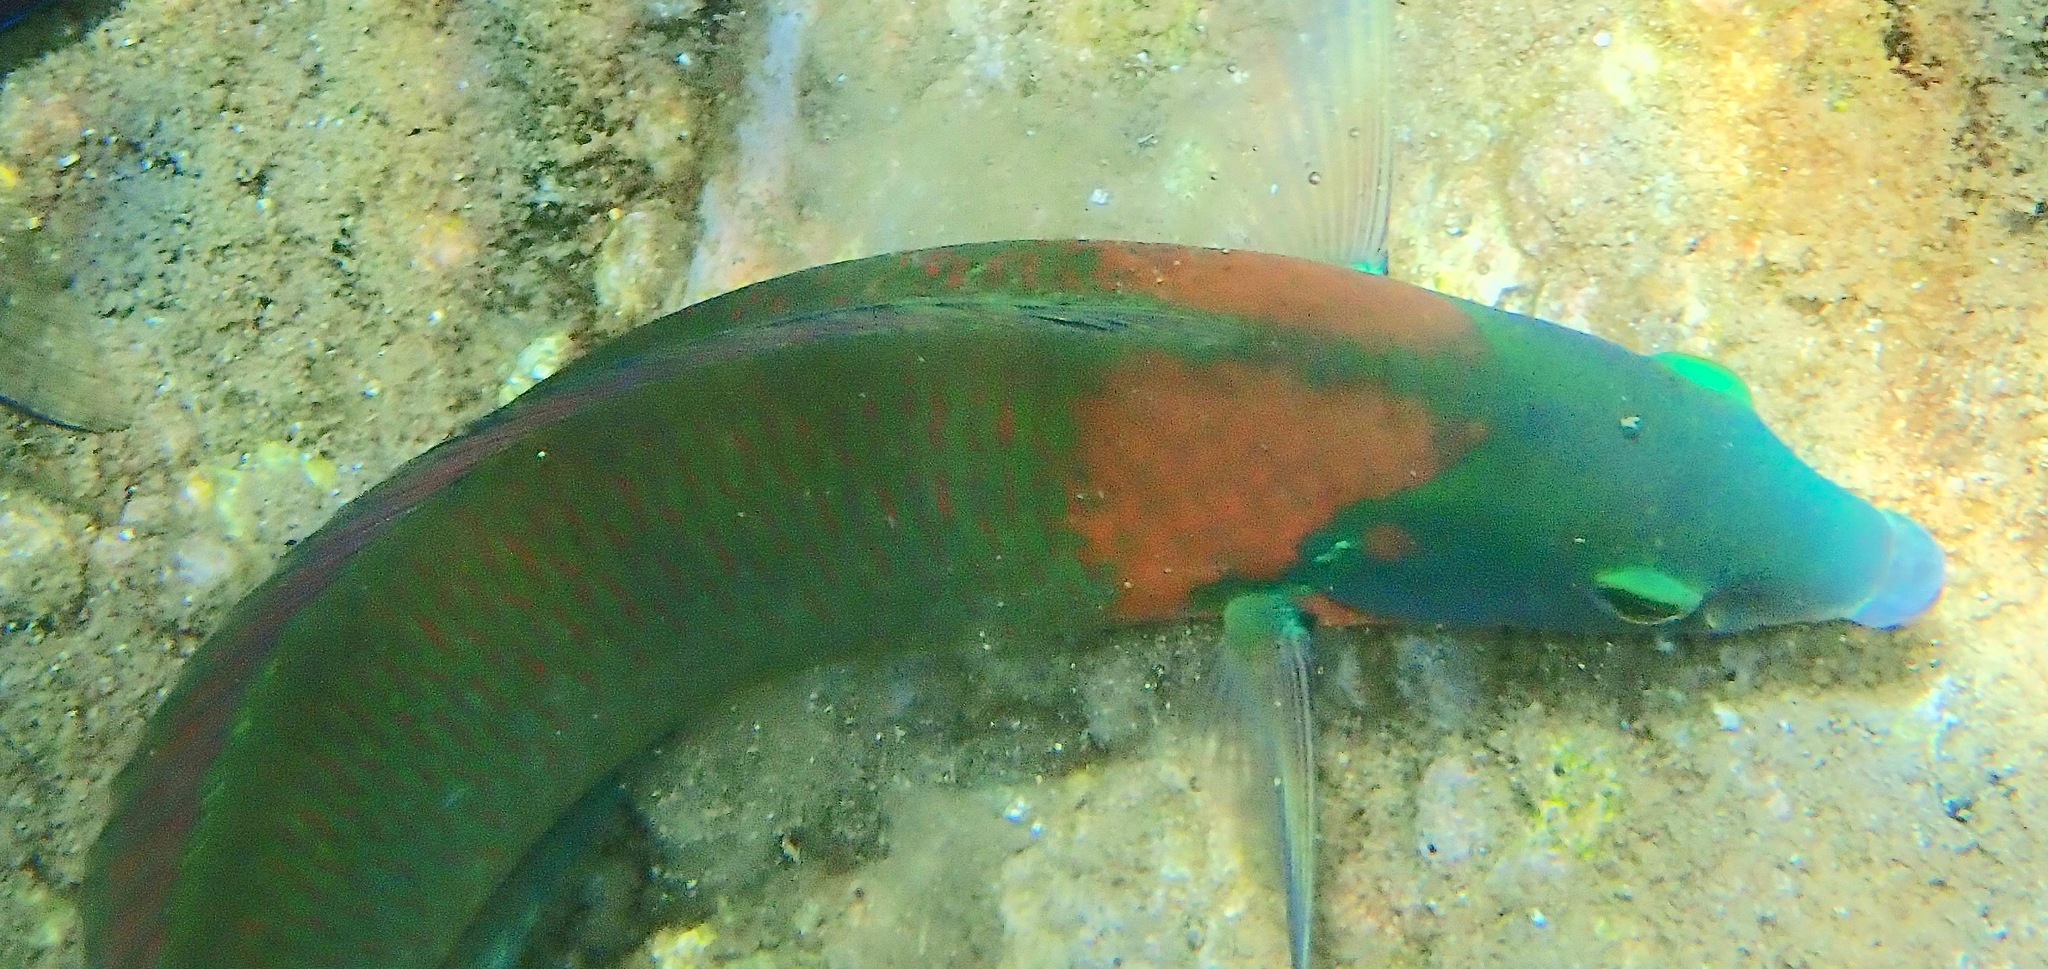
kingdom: Animalia
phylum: Chordata
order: Perciformes
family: Labridae
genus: Thalassoma
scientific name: Thalassoma duperrey
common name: Saddle wrasse
